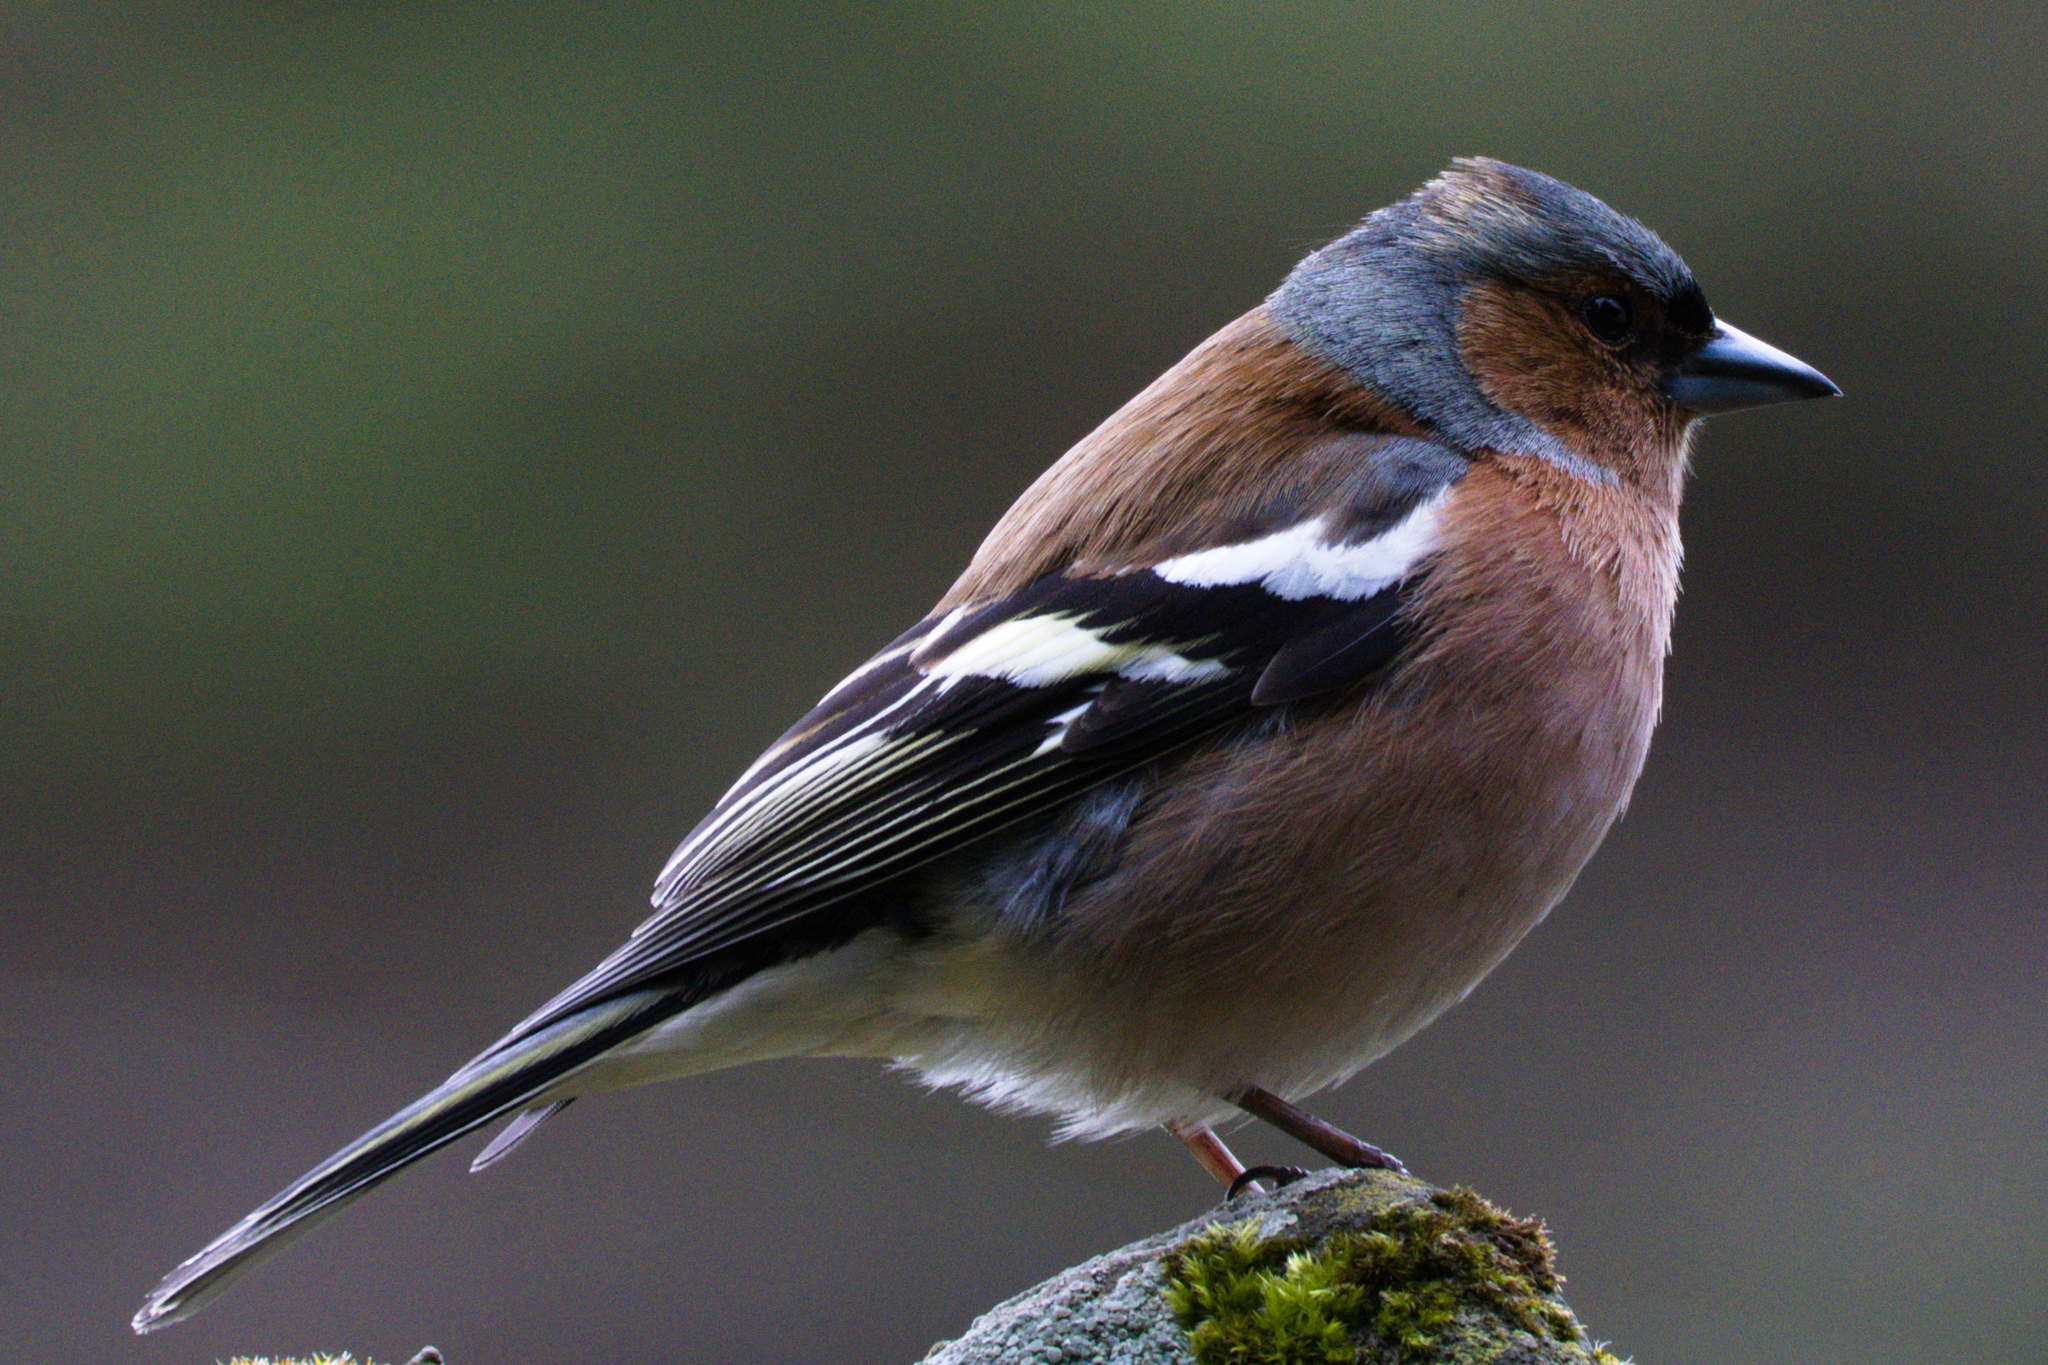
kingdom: Animalia
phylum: Chordata
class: Aves
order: Passeriformes
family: Fringillidae
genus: Fringilla
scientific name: Fringilla coelebs
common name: Common chaffinch
